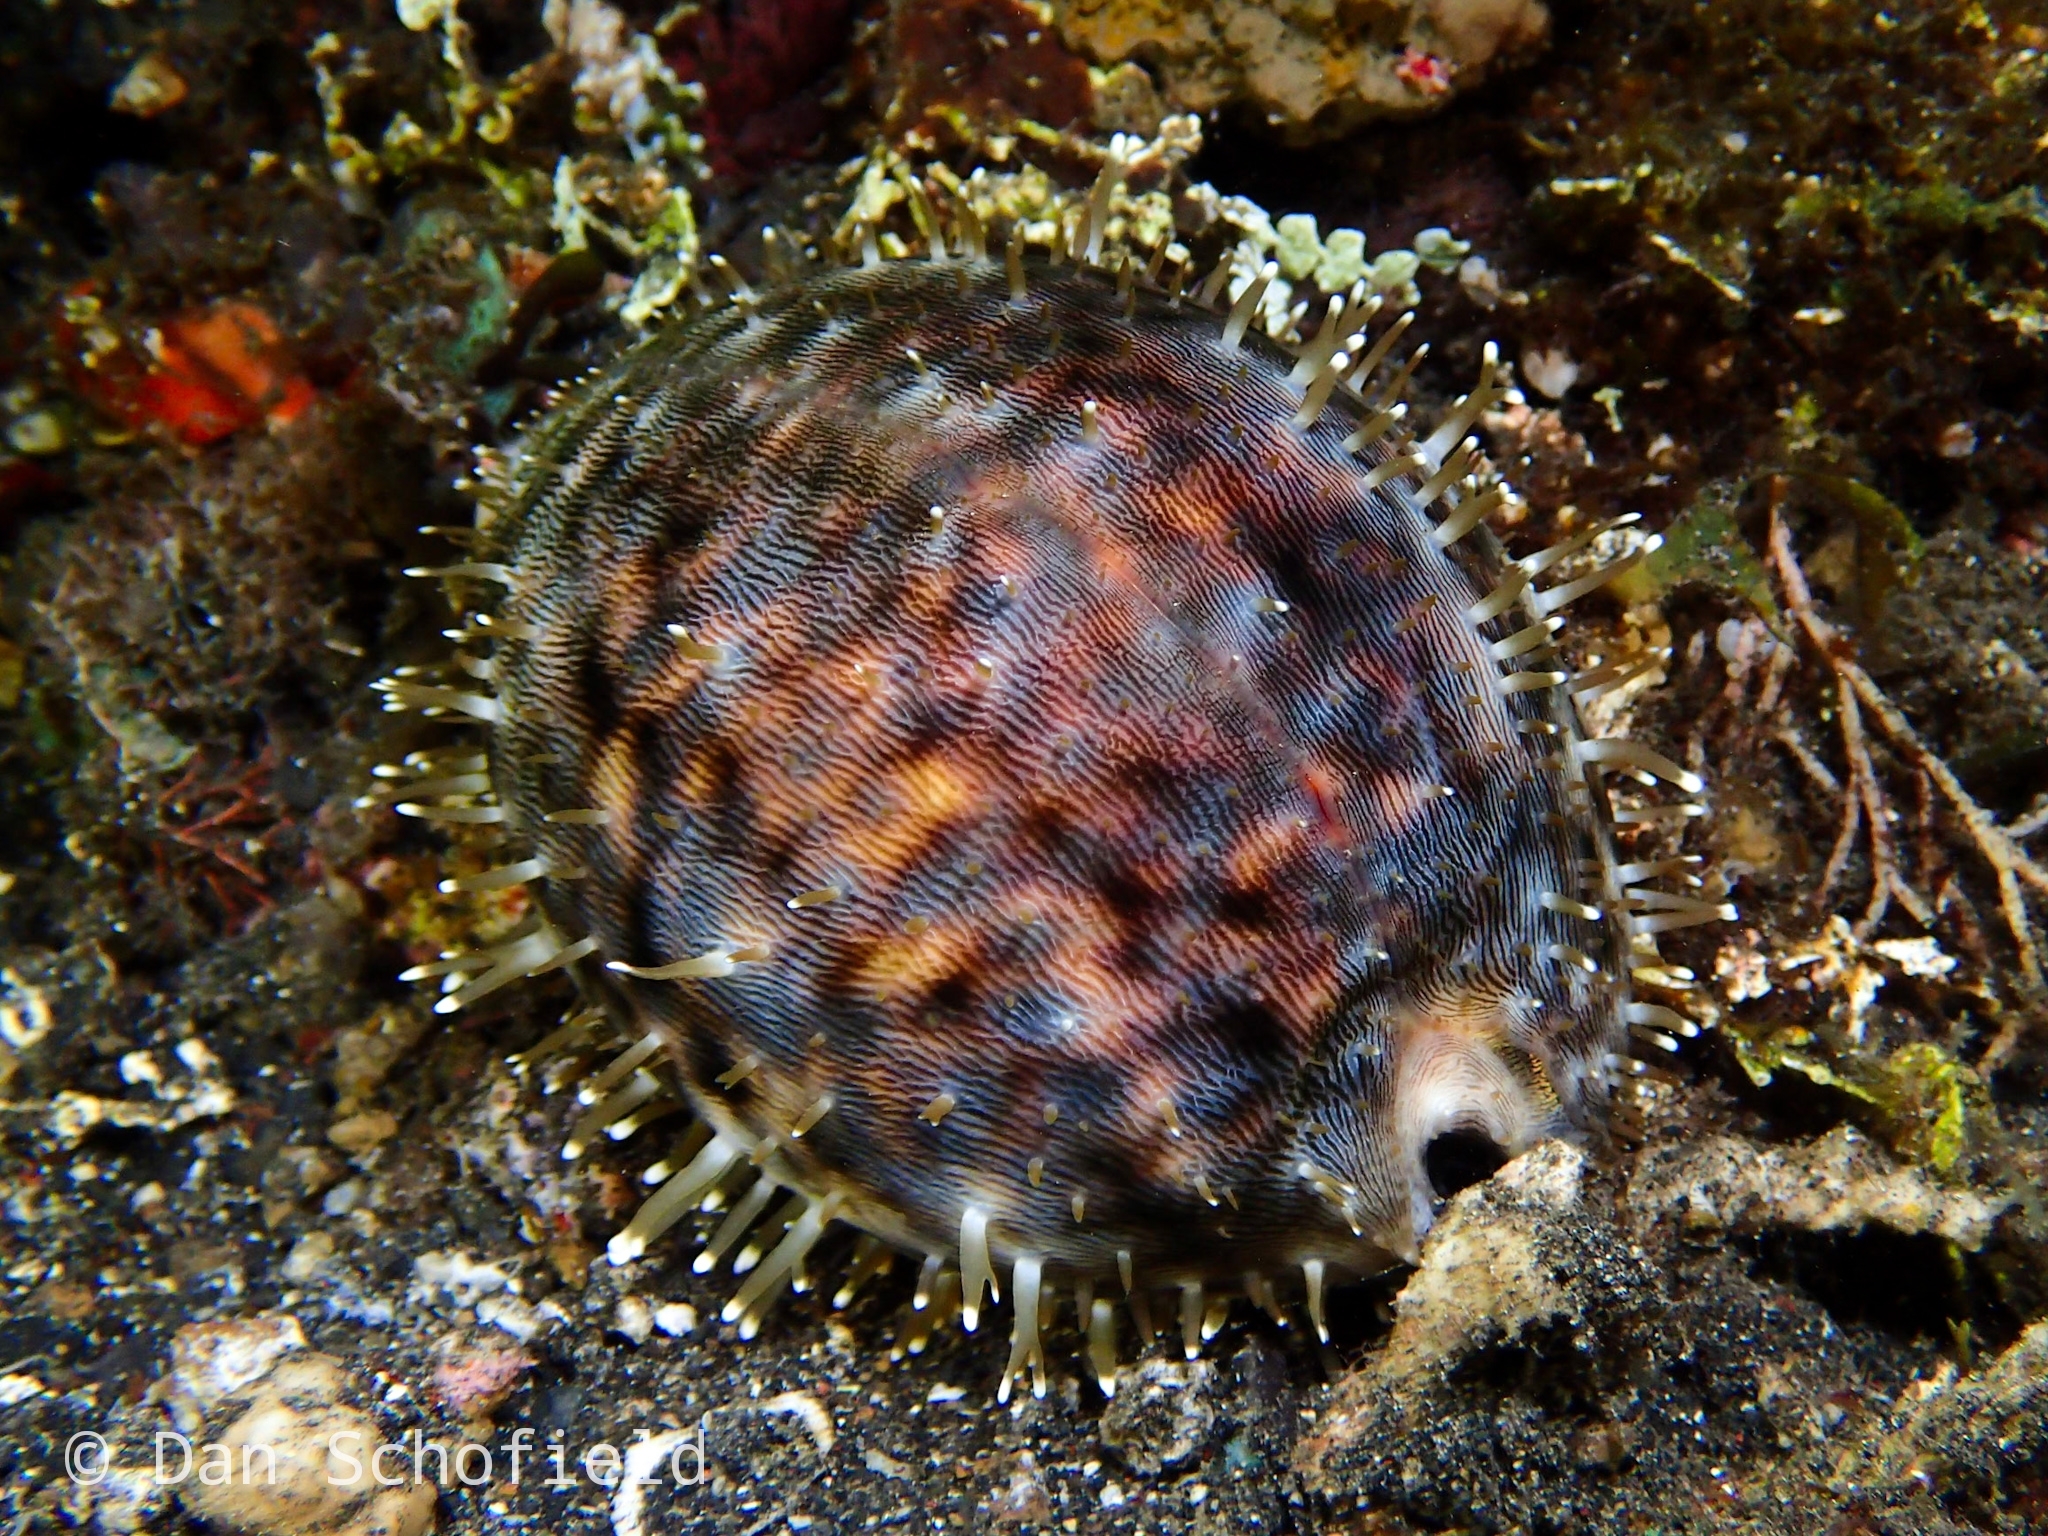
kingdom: Animalia
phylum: Mollusca
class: Gastropoda
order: Littorinimorpha
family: Cypraeidae
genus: Cypraea
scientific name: Cypraea tigris
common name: Tiger cowrie
